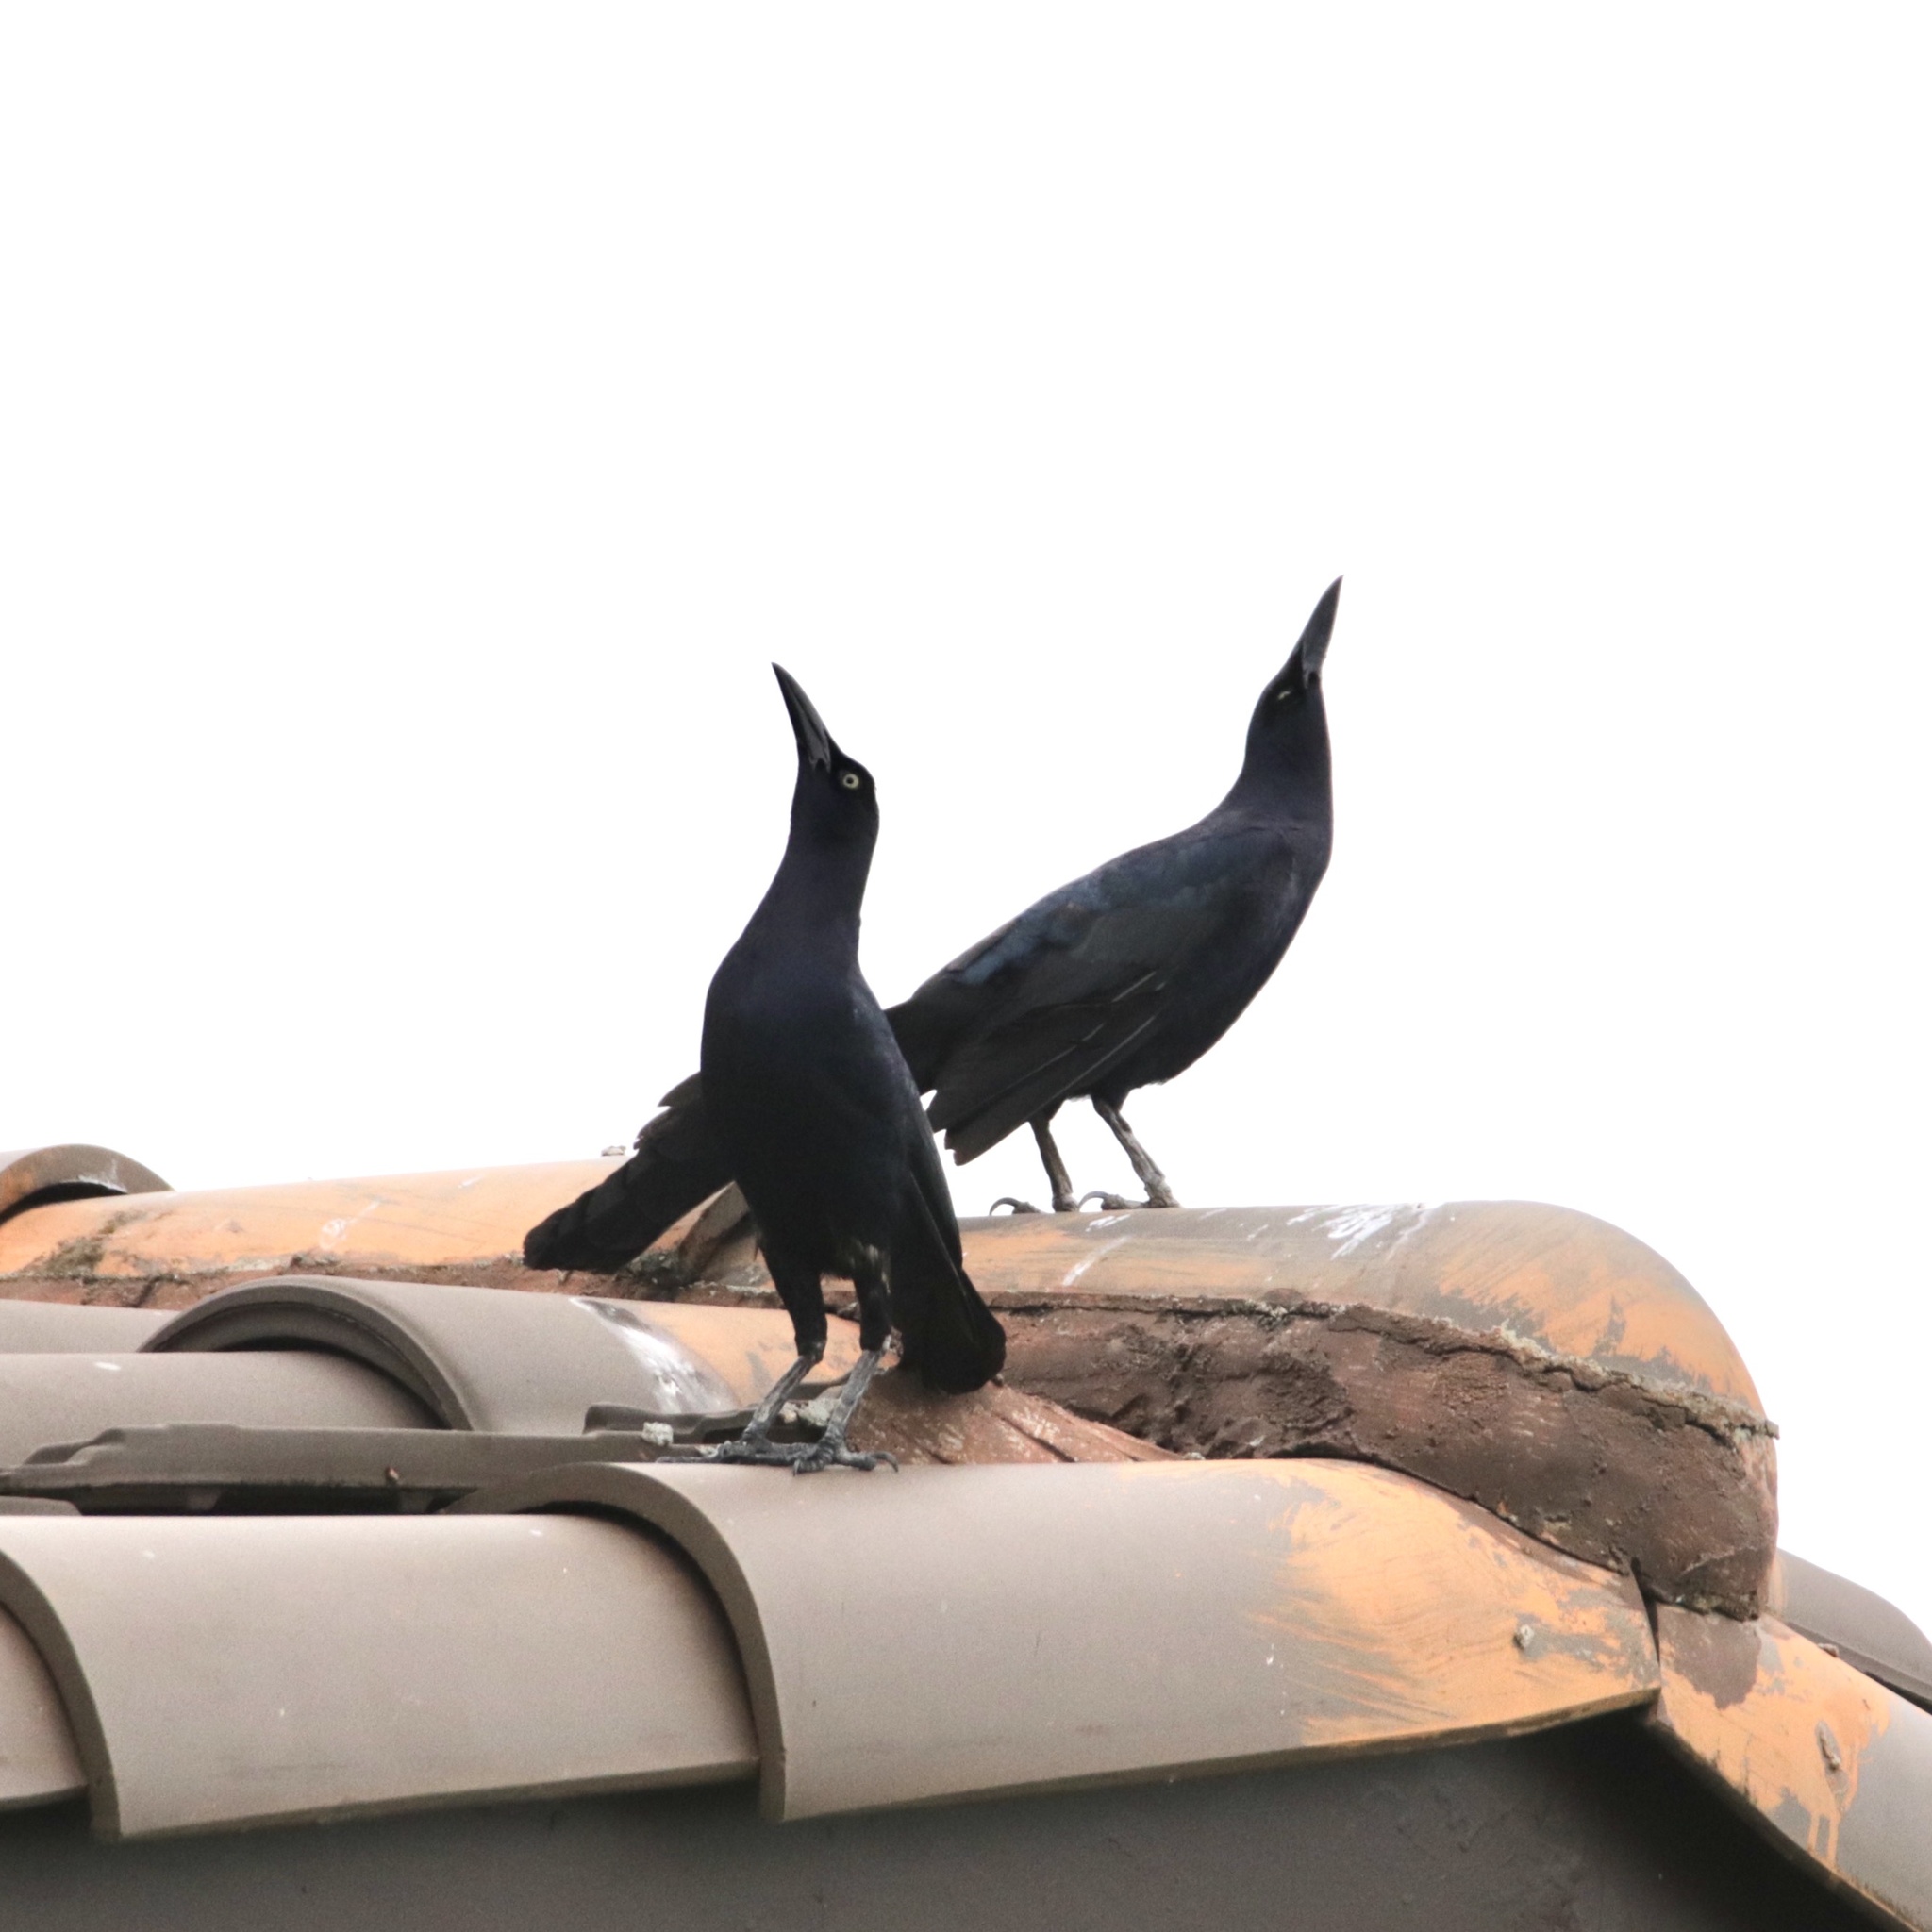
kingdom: Animalia
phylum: Chordata
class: Aves
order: Passeriformes
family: Icteridae
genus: Quiscalus
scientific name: Quiscalus mexicanus
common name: Great-tailed grackle
